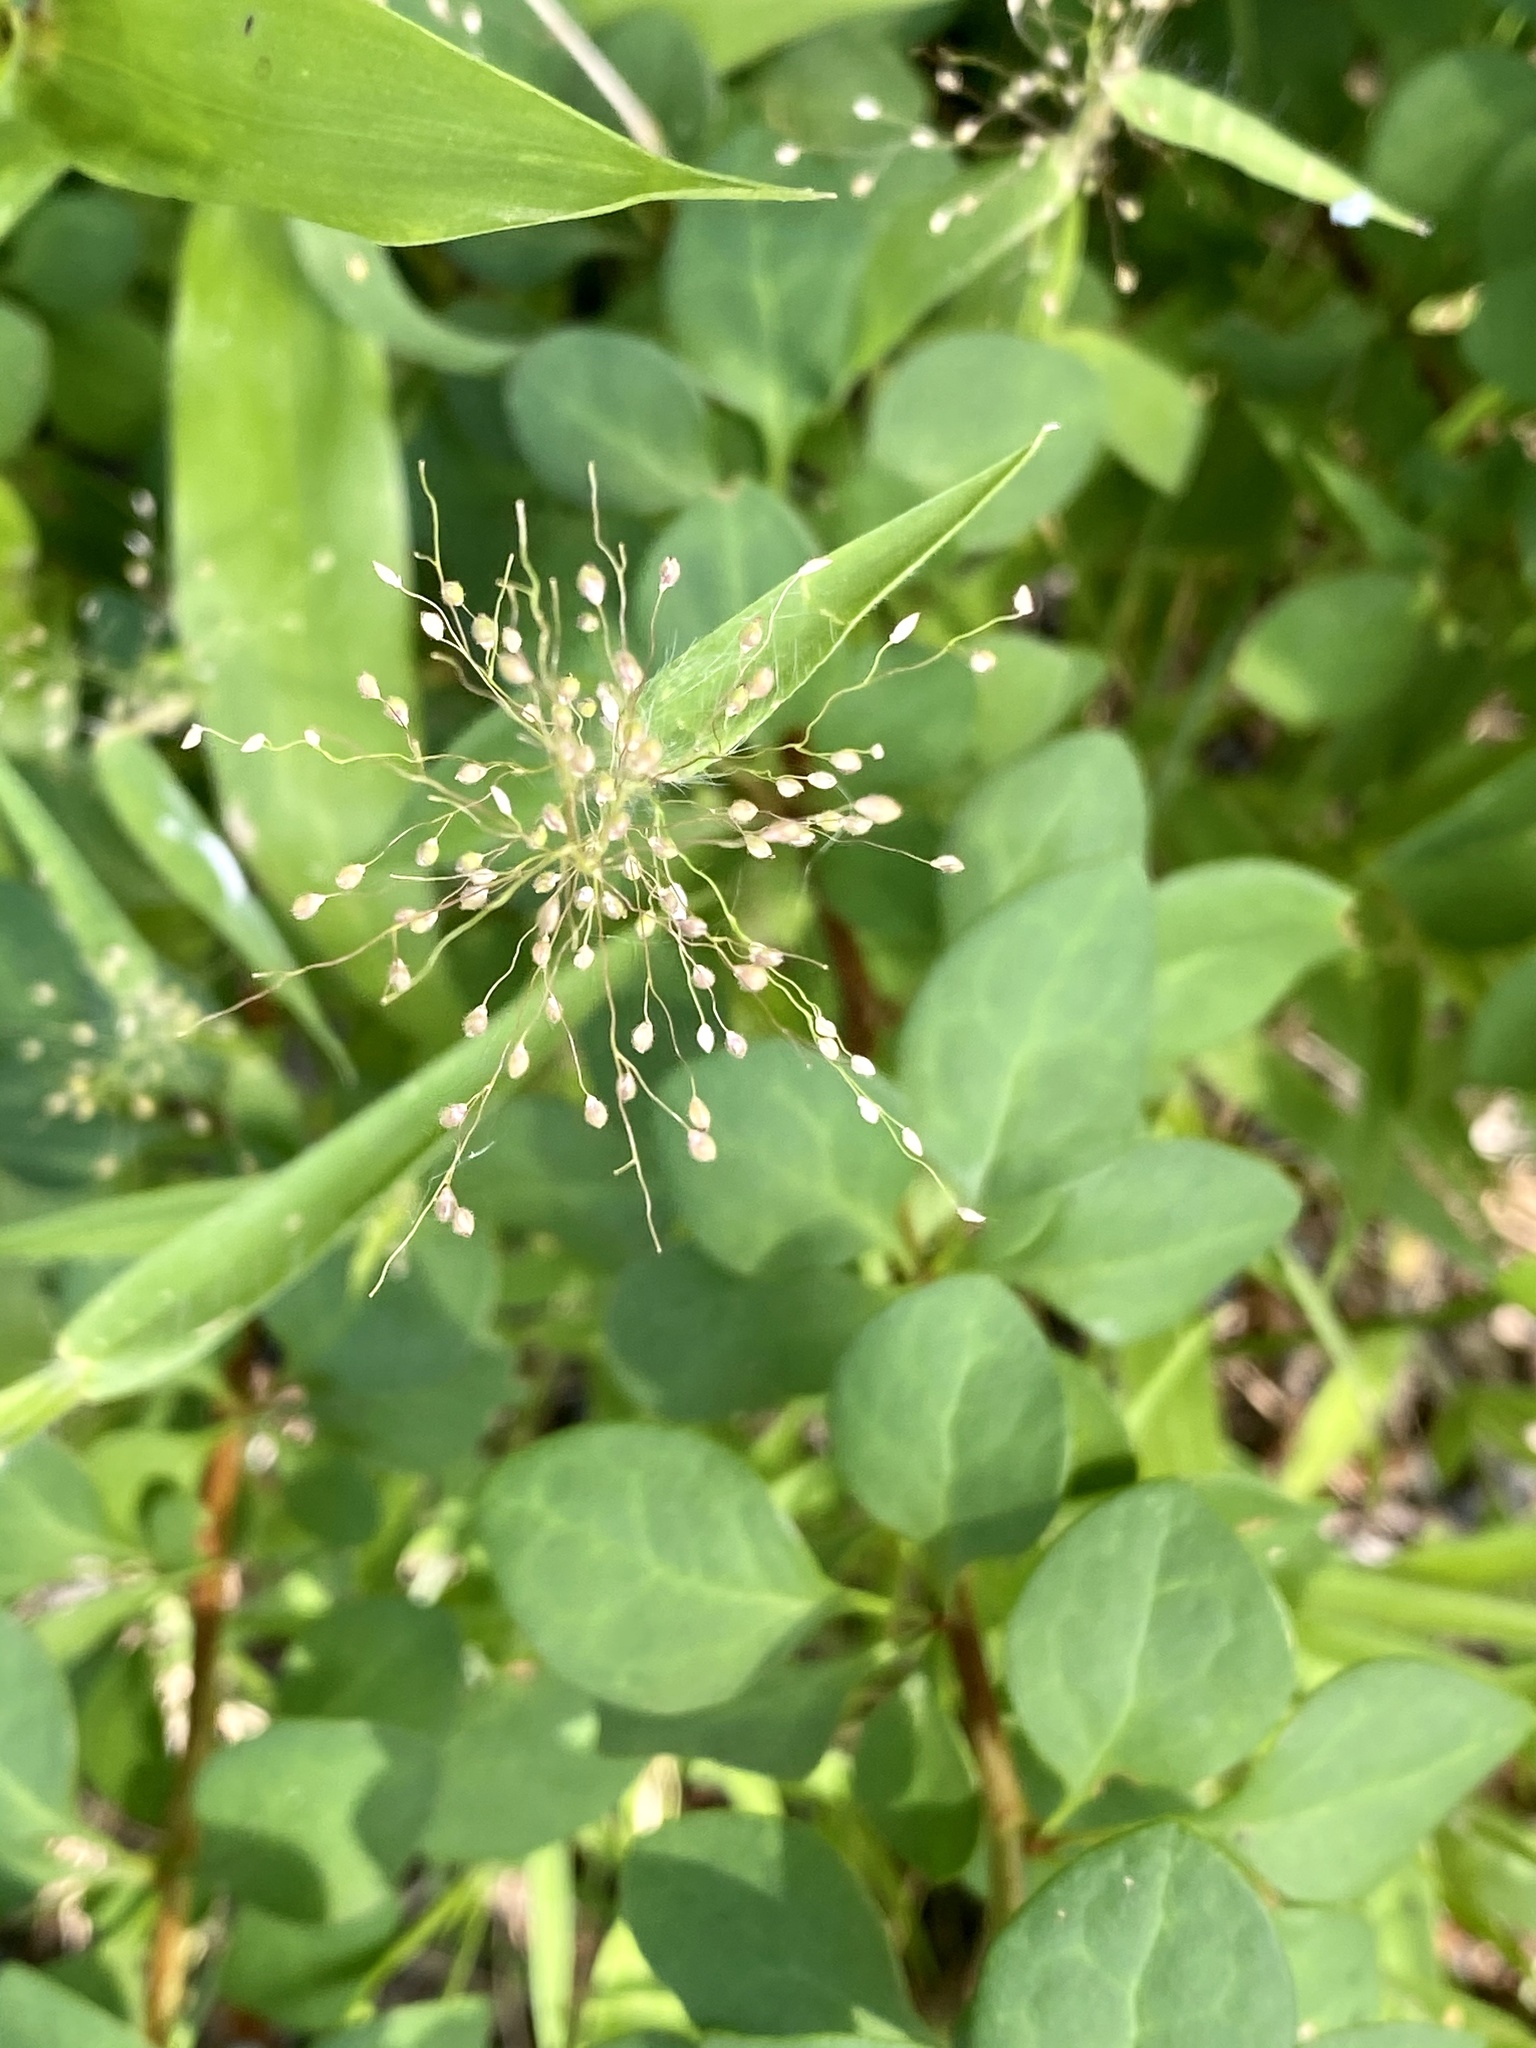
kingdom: Plantae
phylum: Tracheophyta
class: Liliopsida
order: Poales
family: Poaceae
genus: Dichanthelium
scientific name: Dichanthelium clandestinum
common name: Deer-tongue grass
